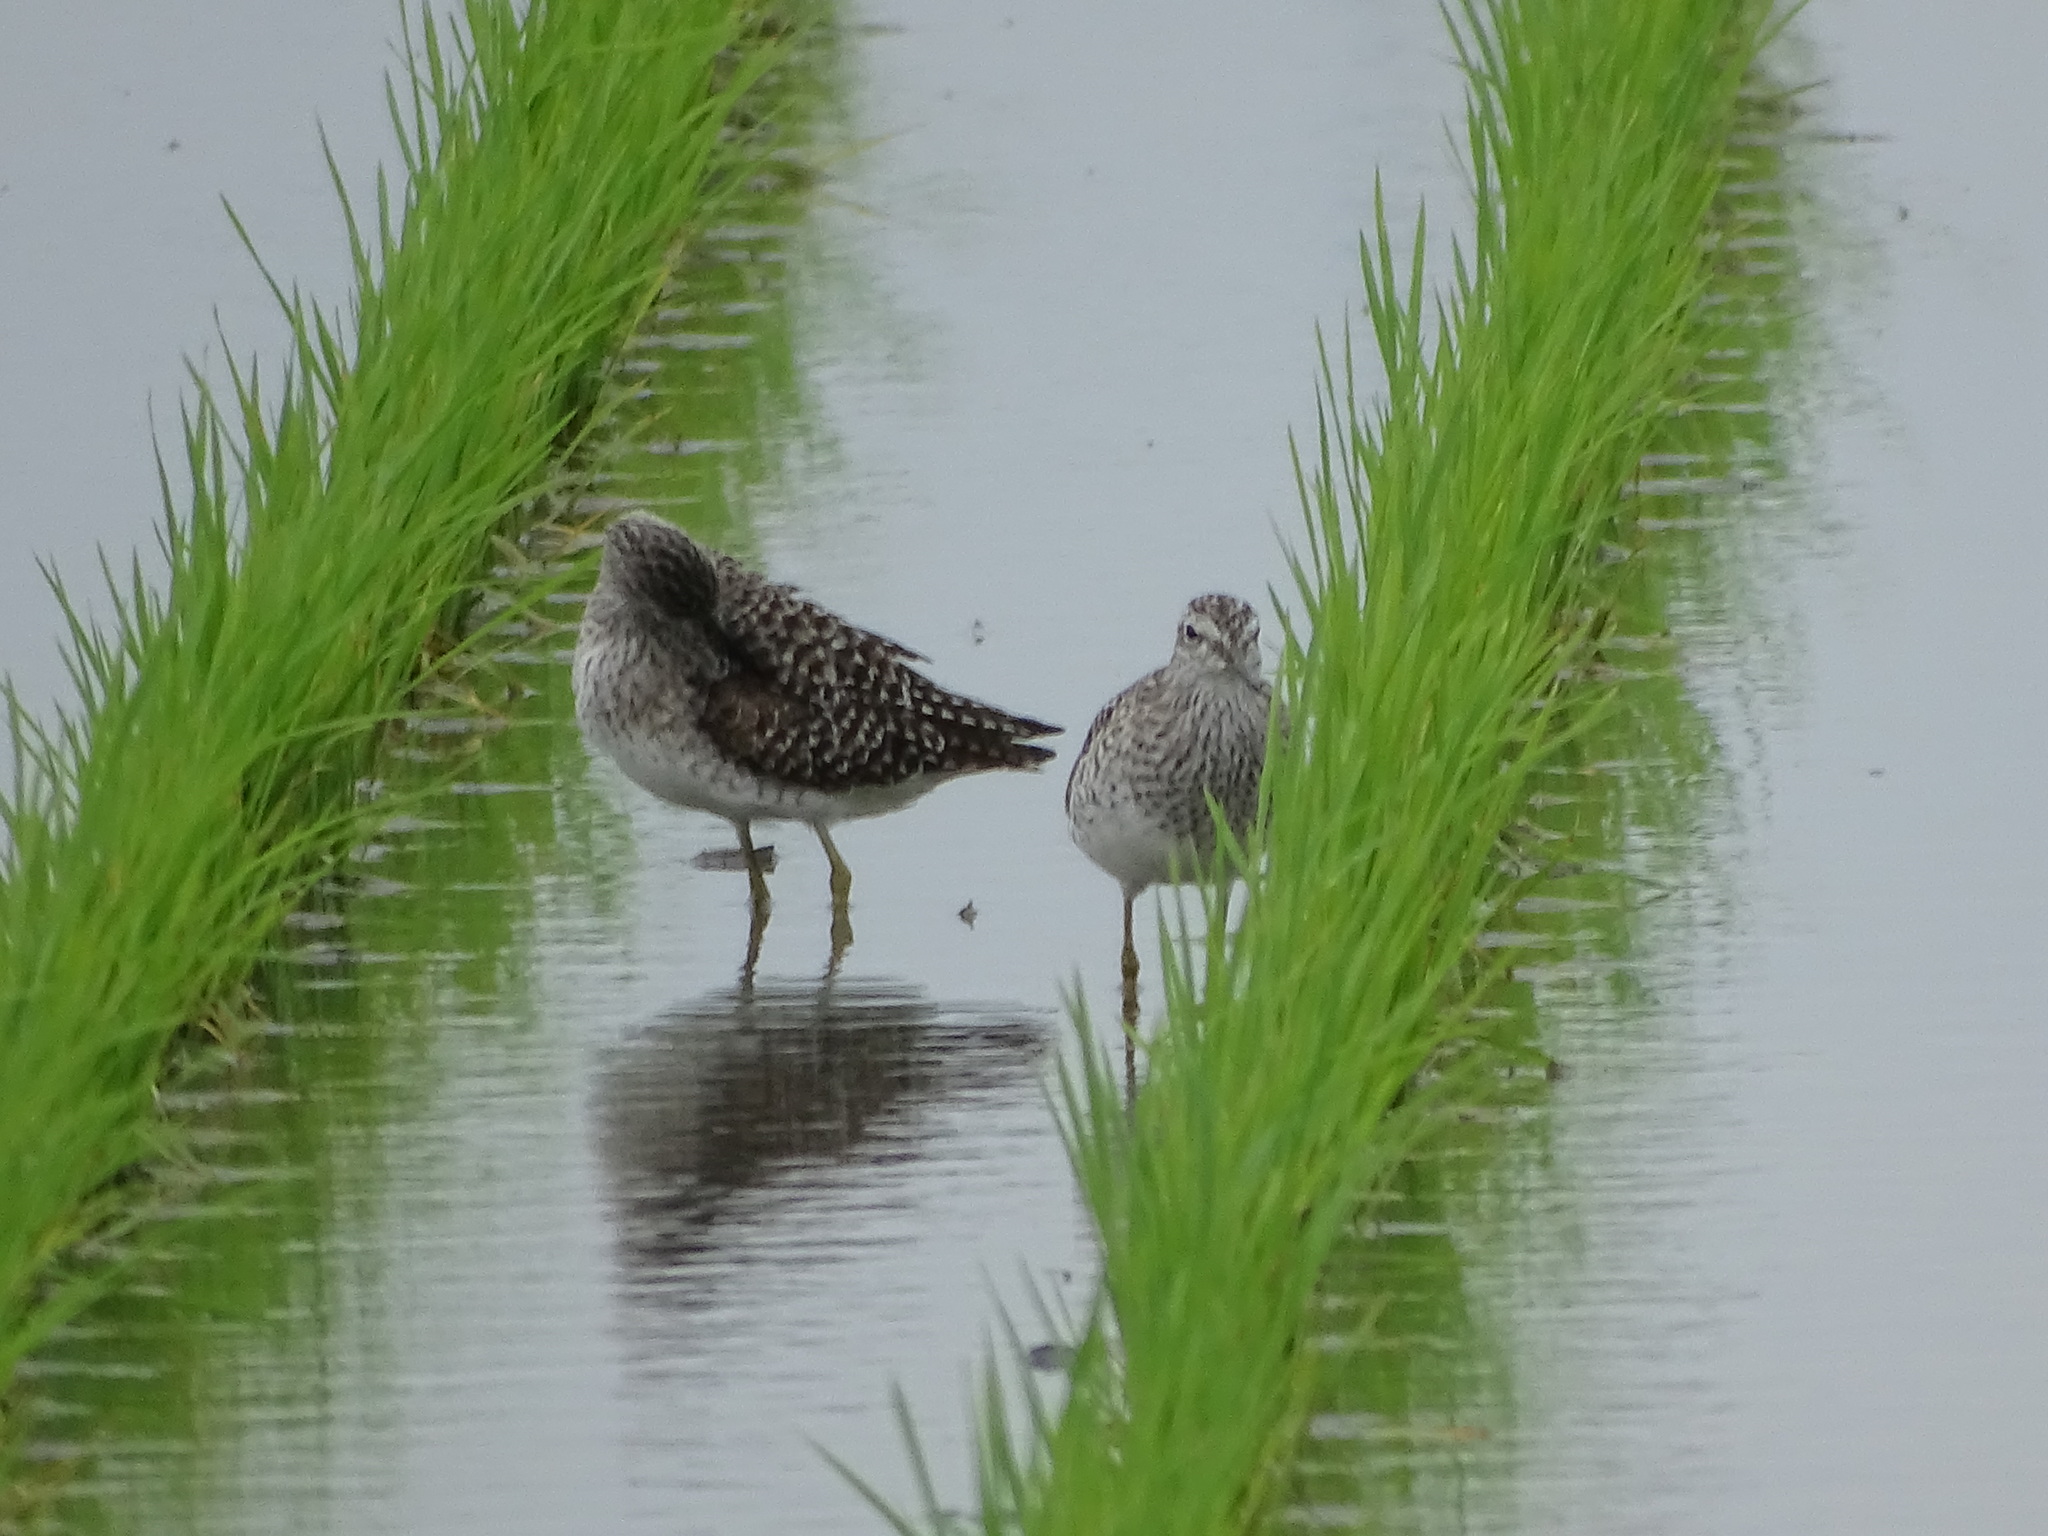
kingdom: Animalia
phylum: Chordata
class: Aves
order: Charadriiformes
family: Scolopacidae
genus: Tringa
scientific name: Tringa glareola
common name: Wood sandpiper
